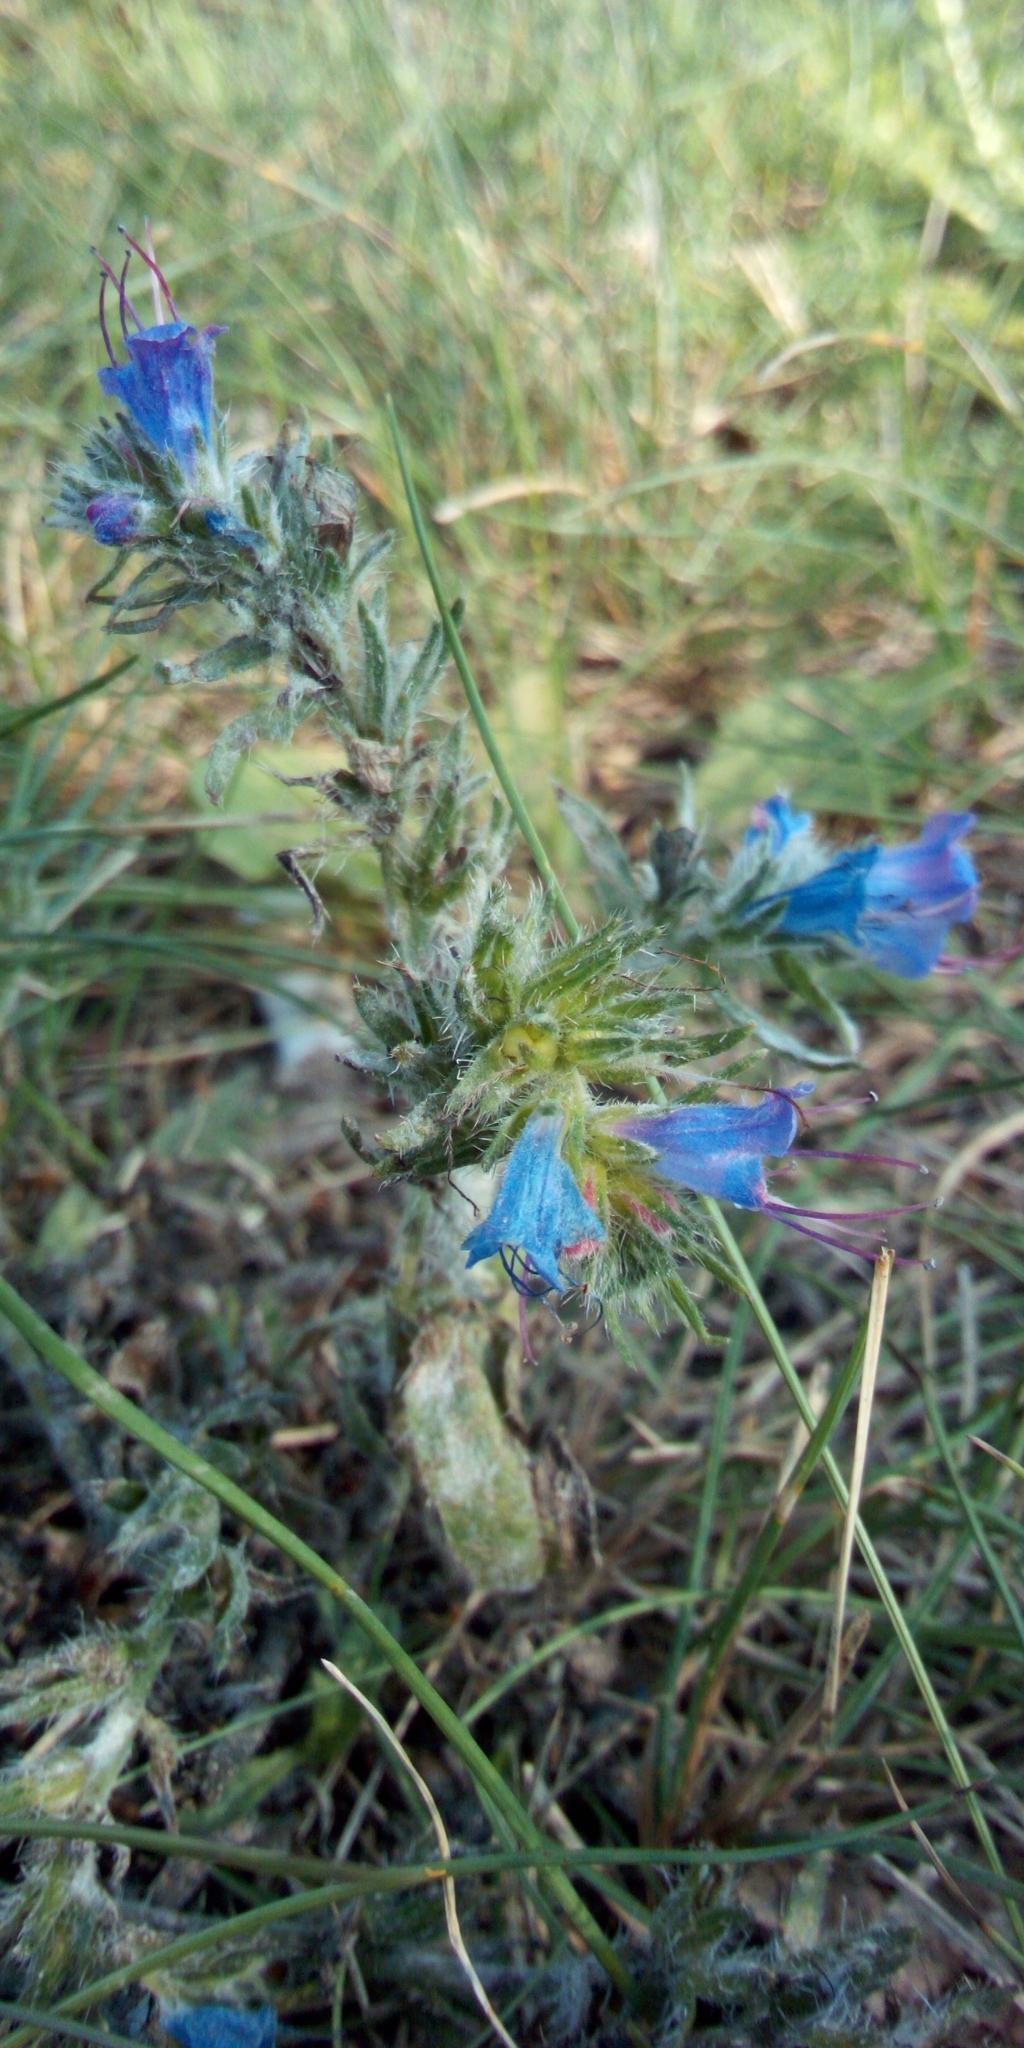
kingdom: Plantae
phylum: Tracheophyta
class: Magnoliopsida
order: Boraginales
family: Boraginaceae
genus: Echium
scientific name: Echium vulgare
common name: Common viper's bugloss
